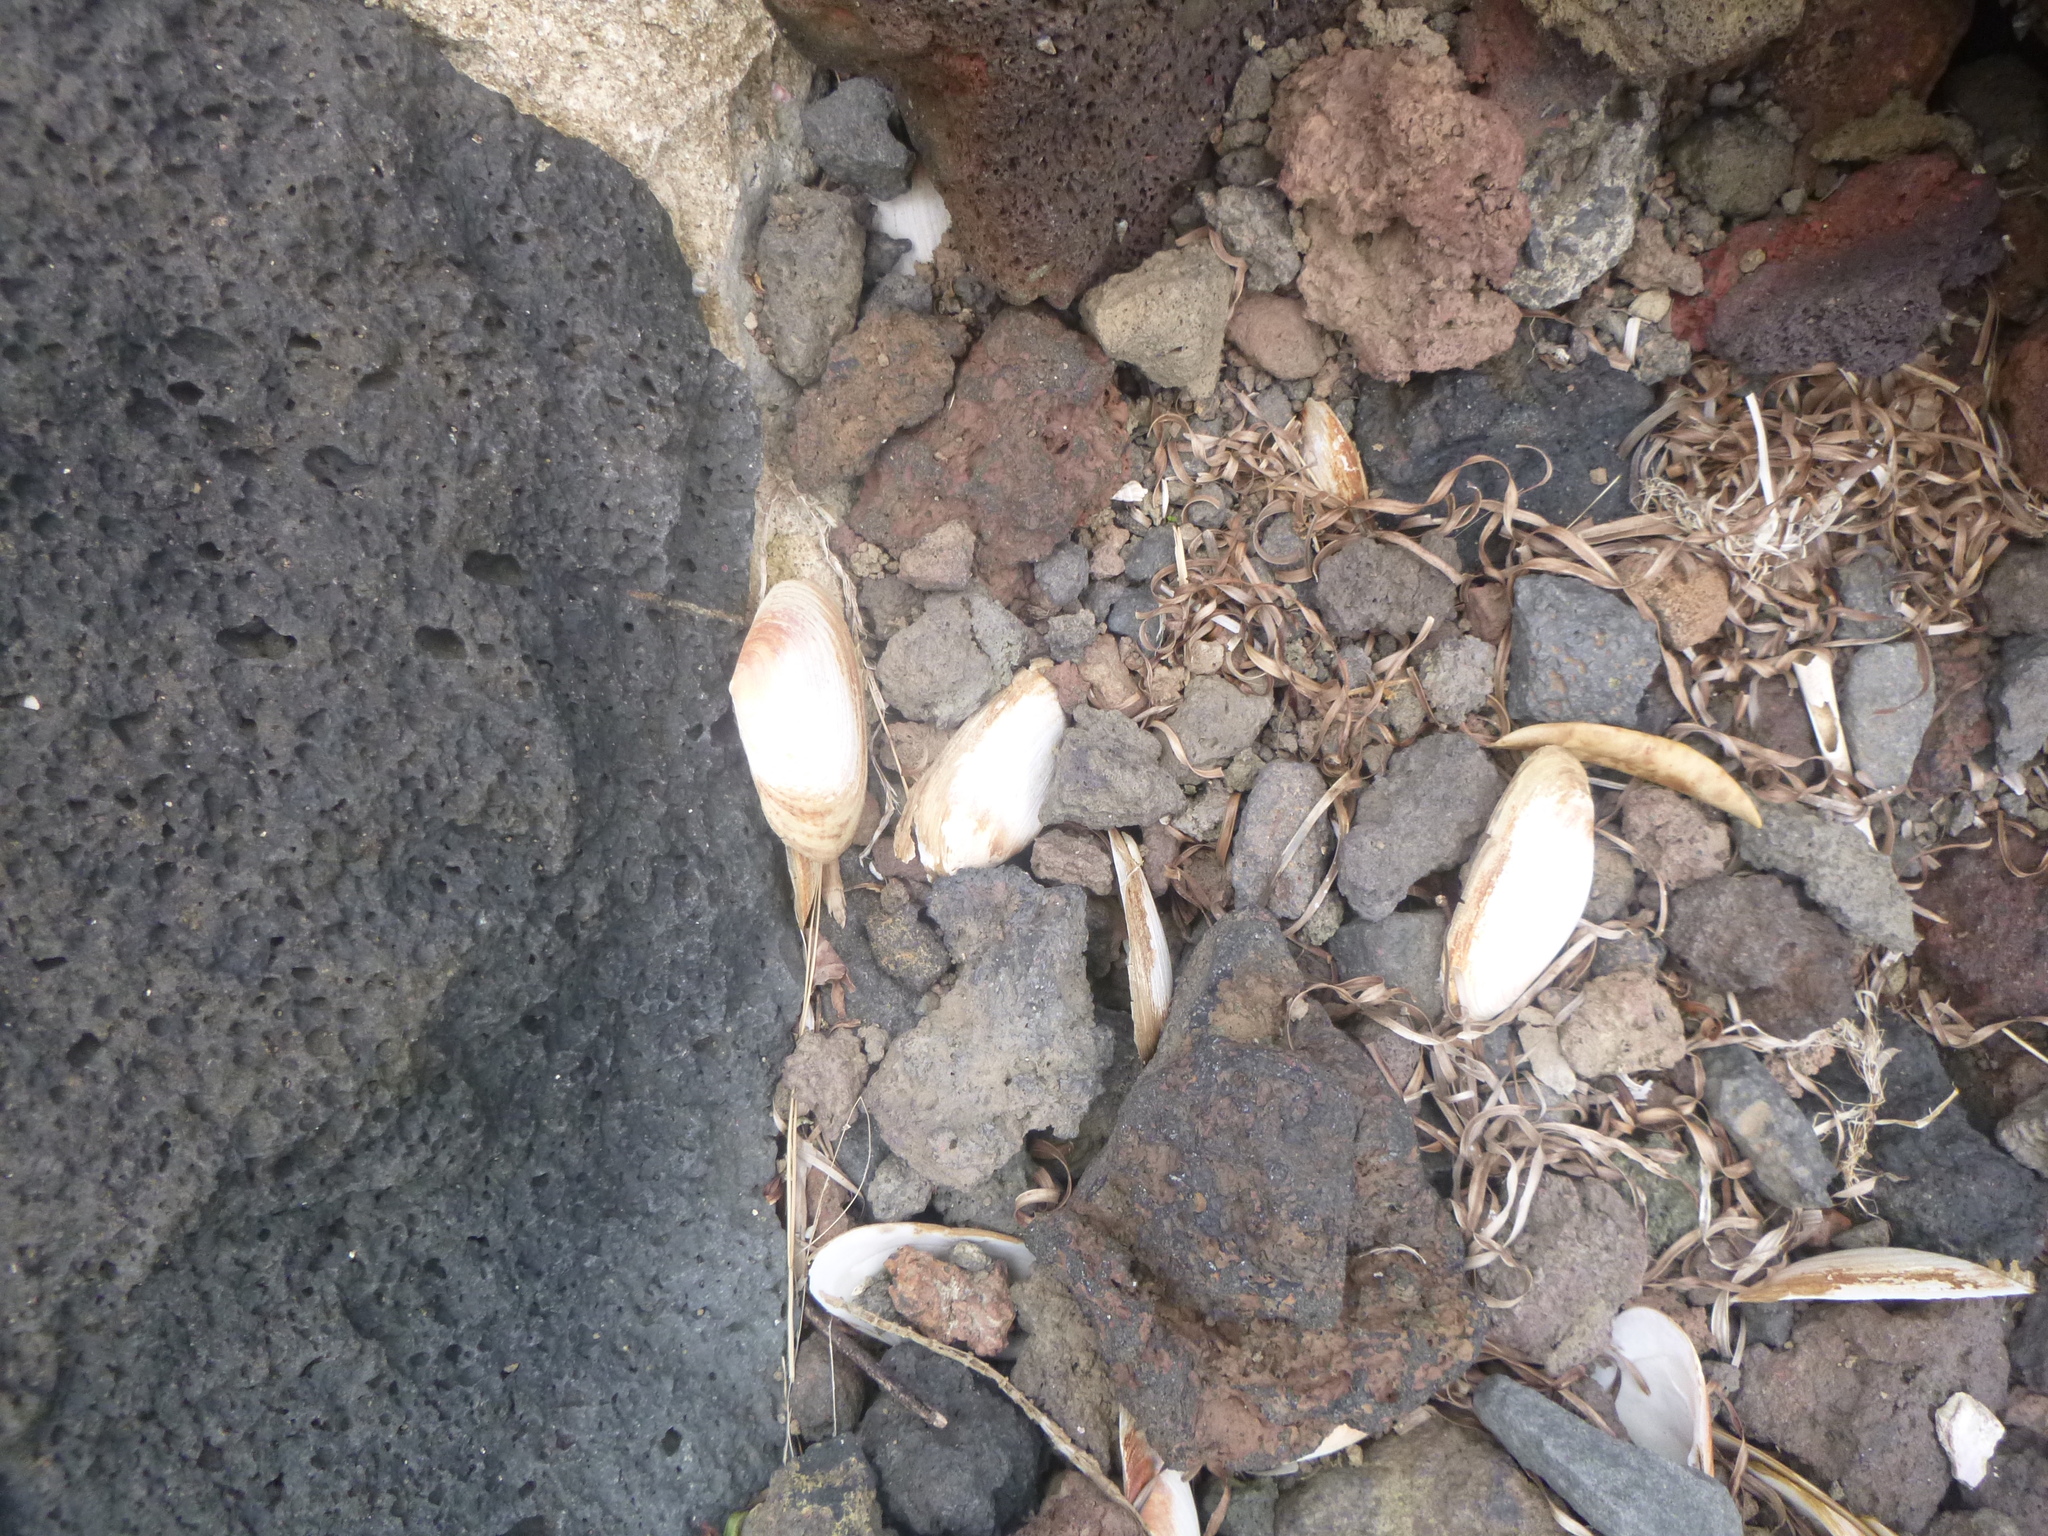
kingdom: Animalia
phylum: Mollusca
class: Bivalvia
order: Venerida
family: Mesodesmatidae
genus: Paphies
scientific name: Paphies australis
